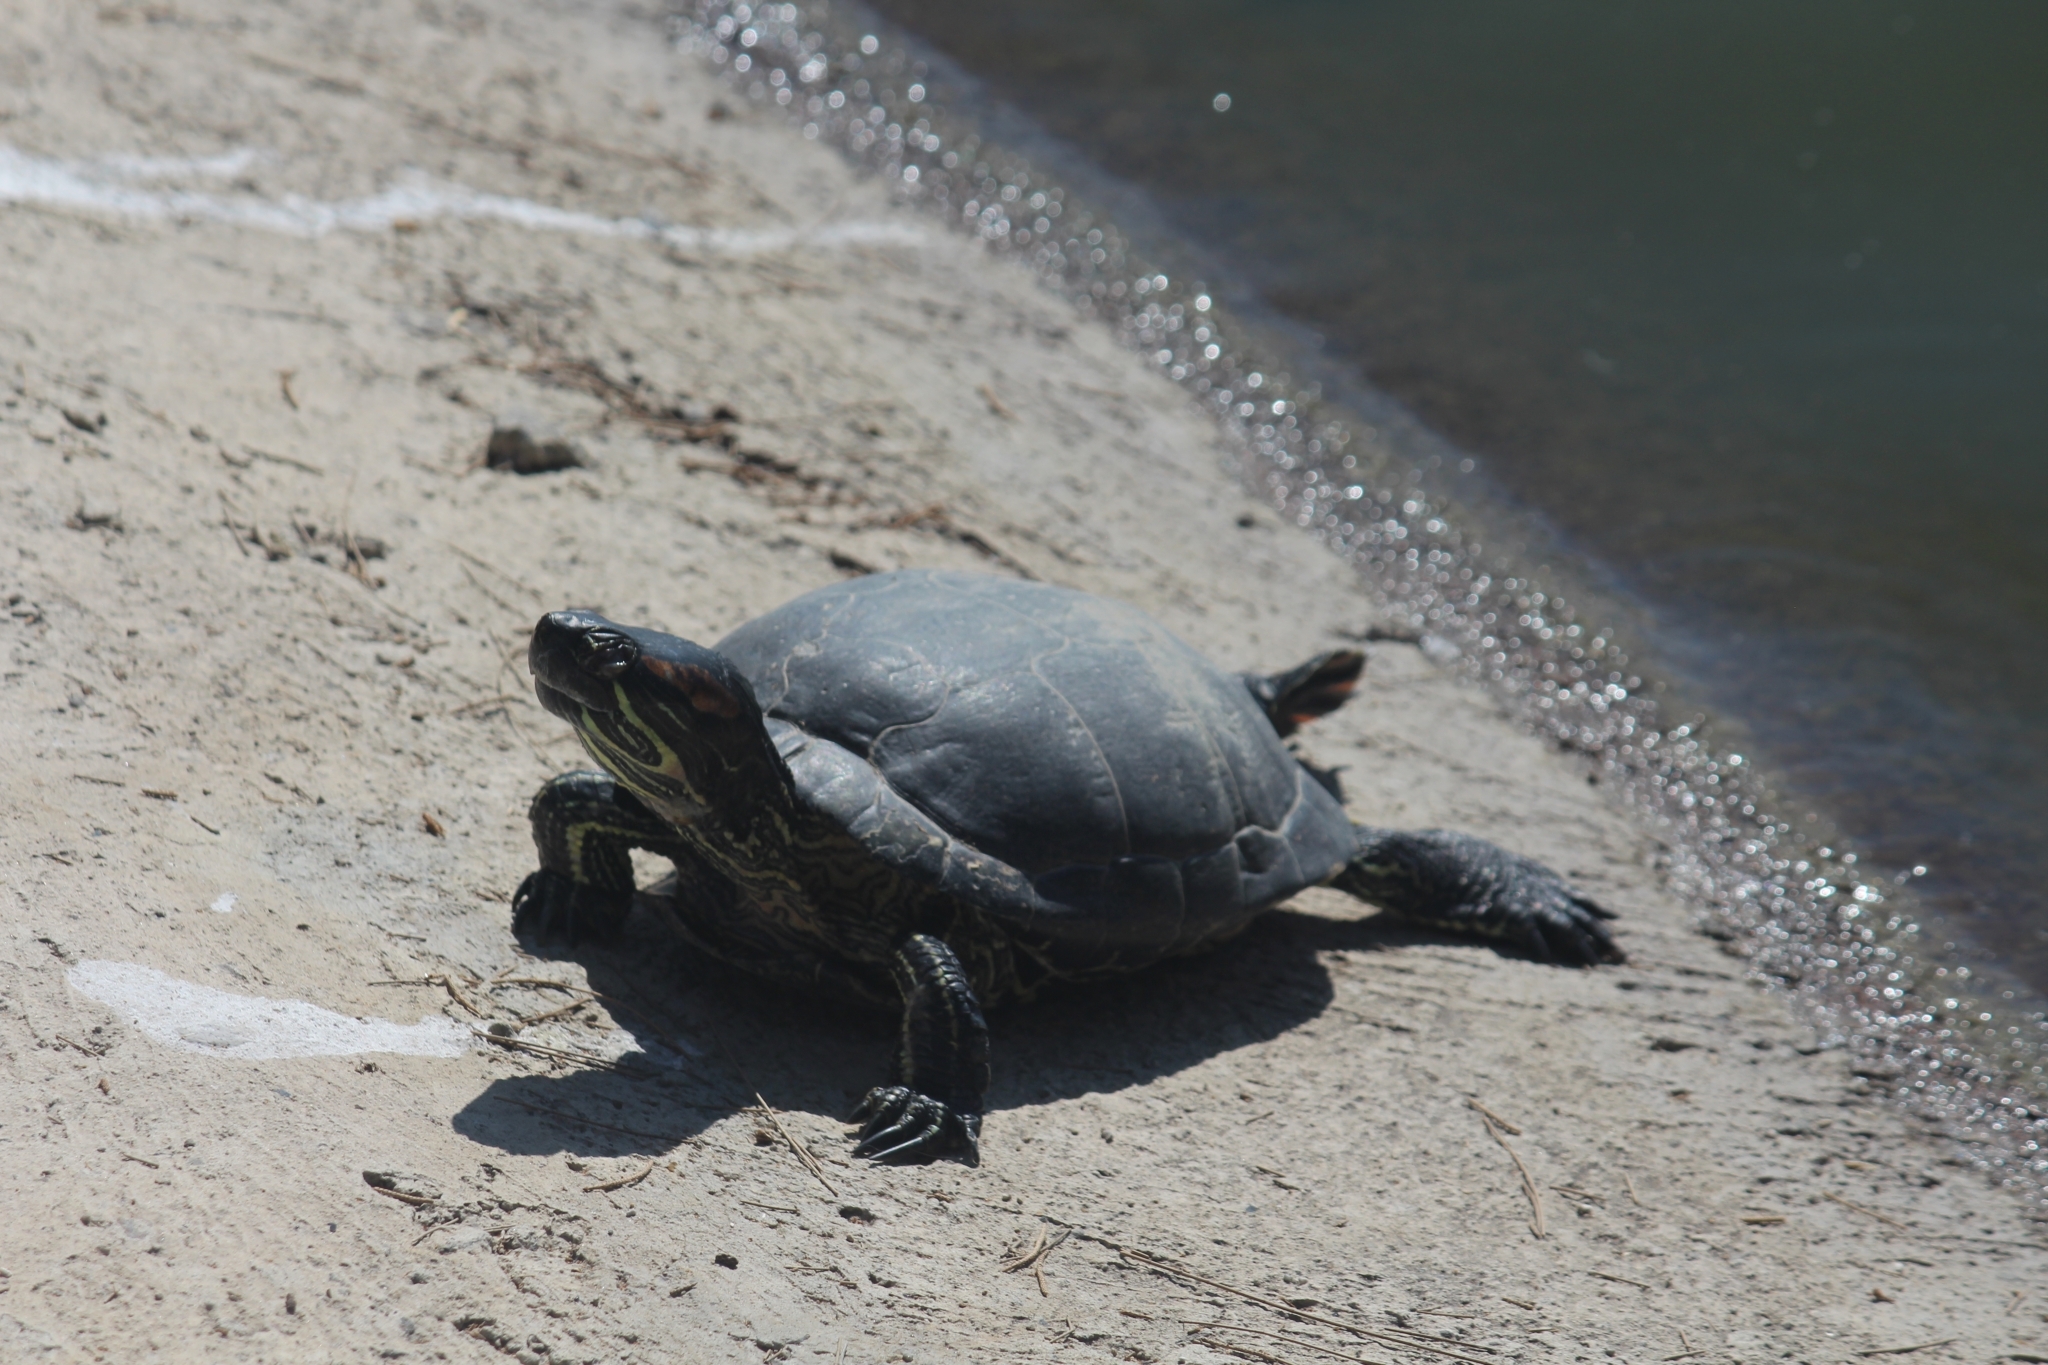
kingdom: Animalia
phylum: Chordata
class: Testudines
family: Emydidae
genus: Trachemys
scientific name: Trachemys scripta
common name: Slider
